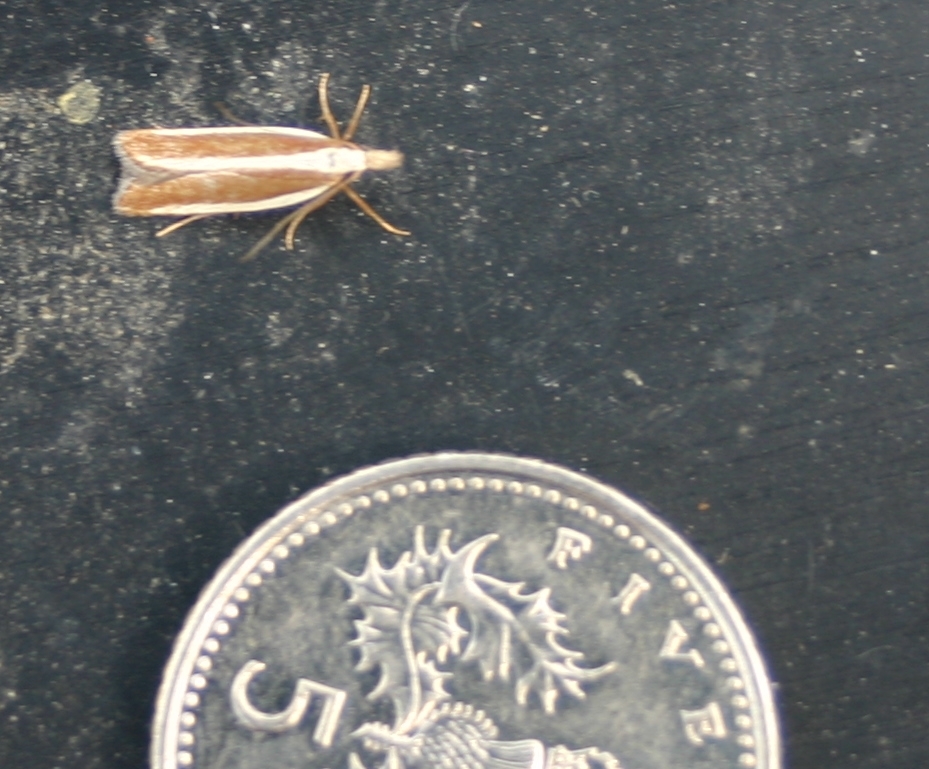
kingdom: Animalia
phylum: Arthropoda
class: Insecta
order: Lepidoptera
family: Gelechiidae
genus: Dichomeris
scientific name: Dichomeris marginella
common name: Juniper webworm
